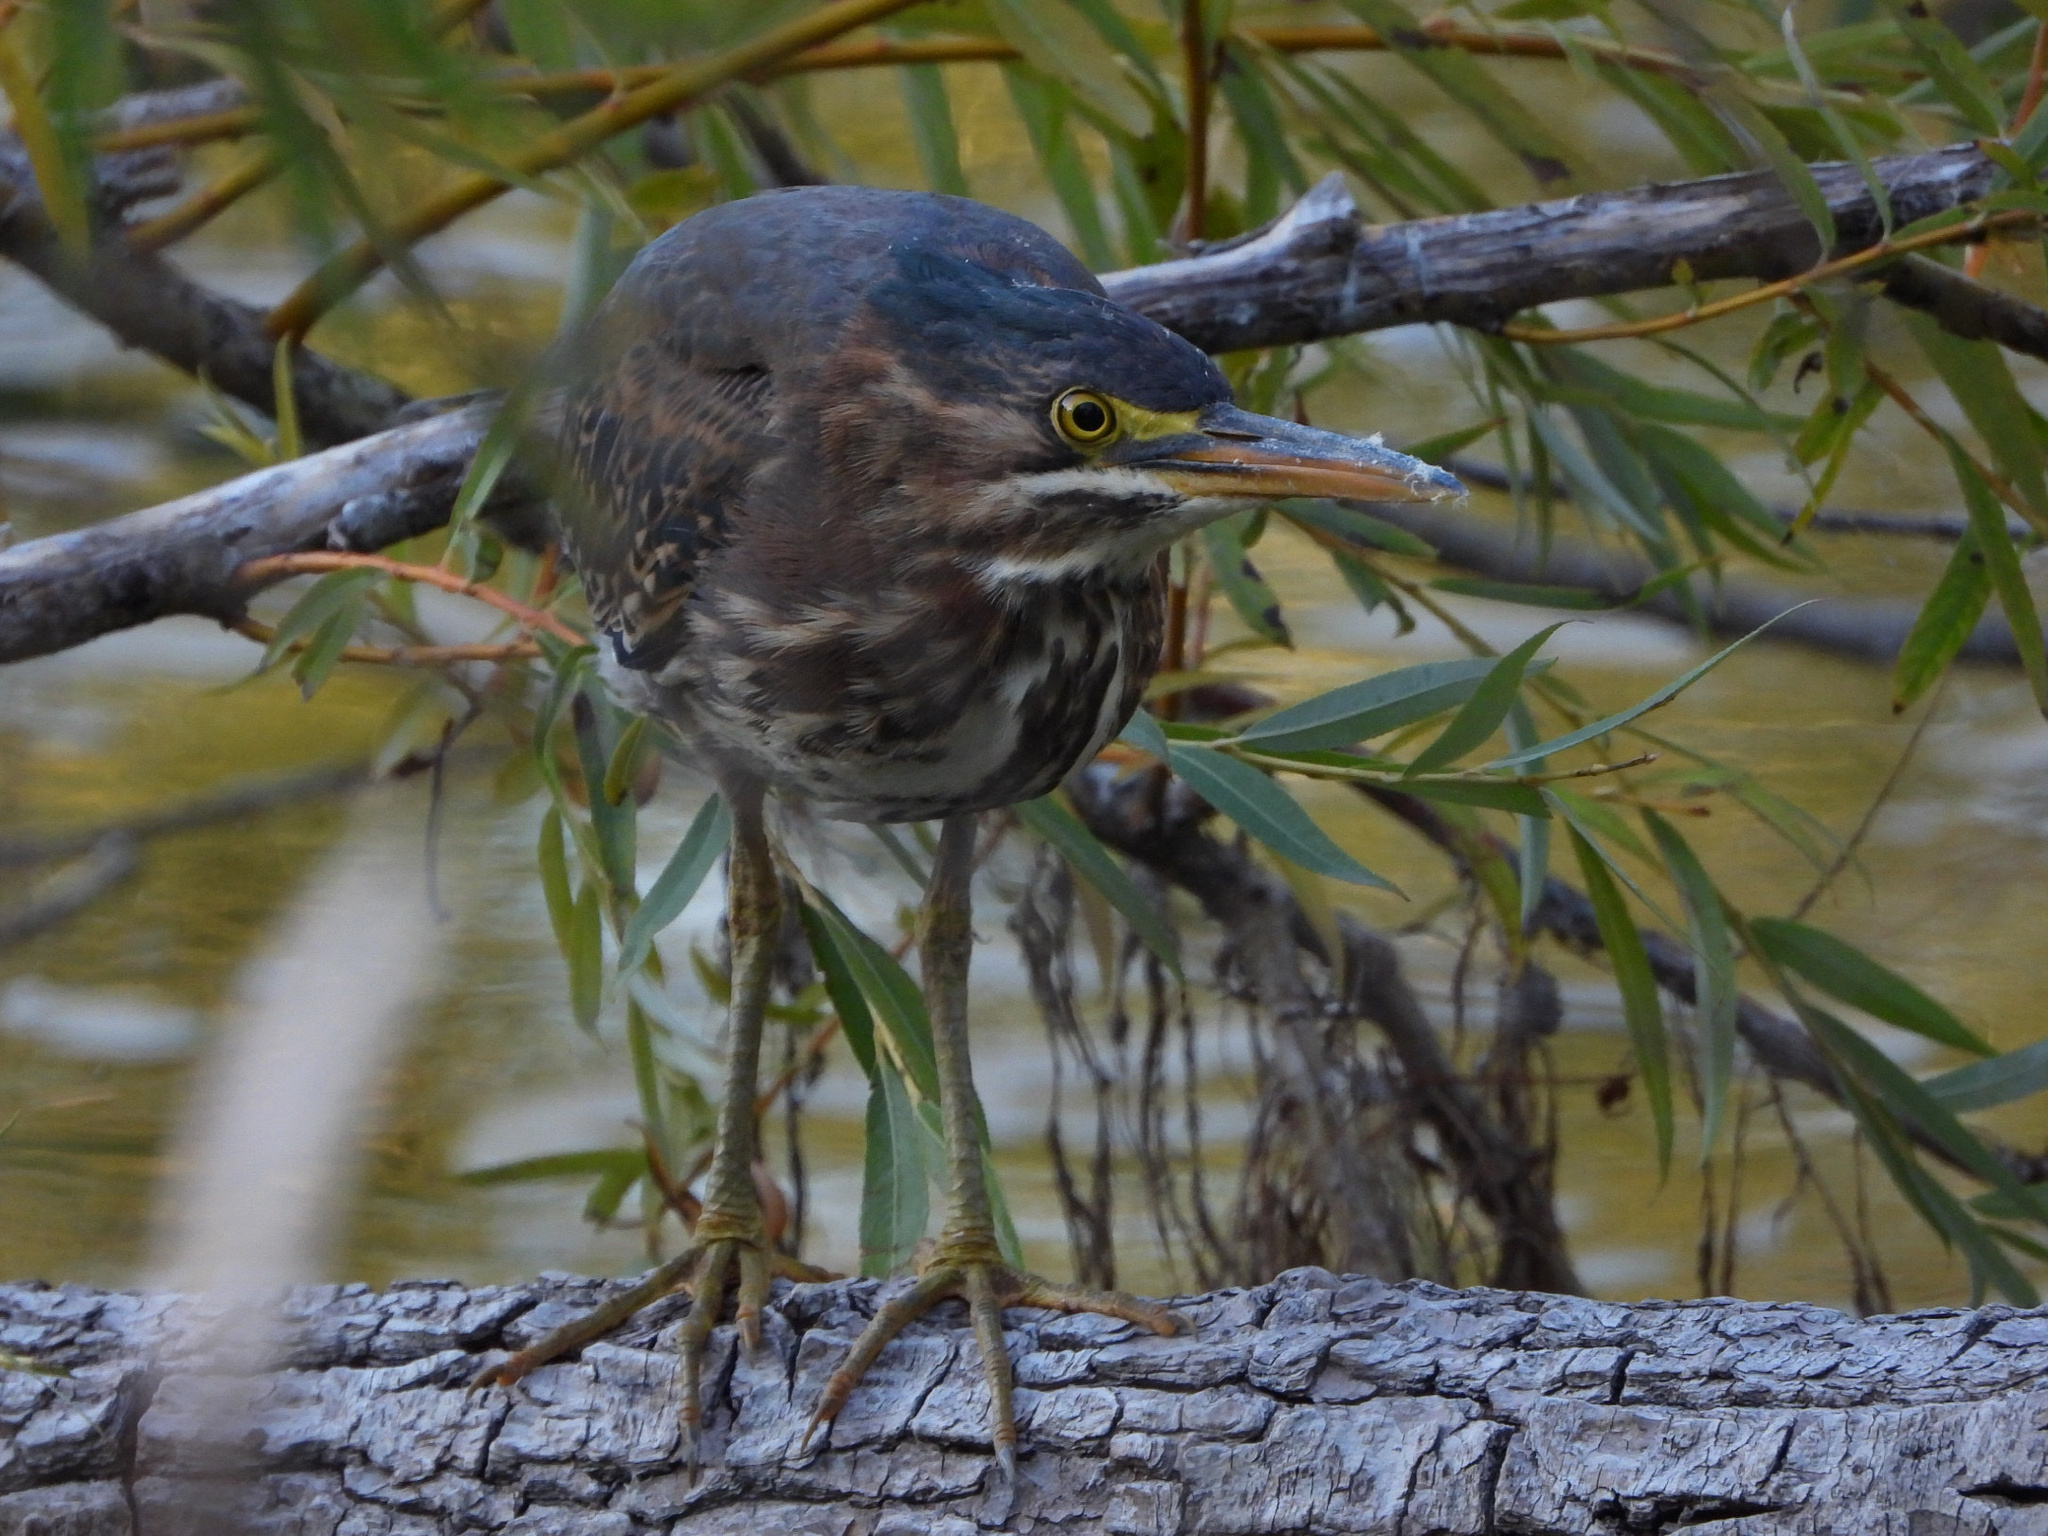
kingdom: Animalia
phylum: Chordata
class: Aves
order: Pelecaniformes
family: Ardeidae
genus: Butorides
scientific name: Butorides virescens
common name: Green heron
